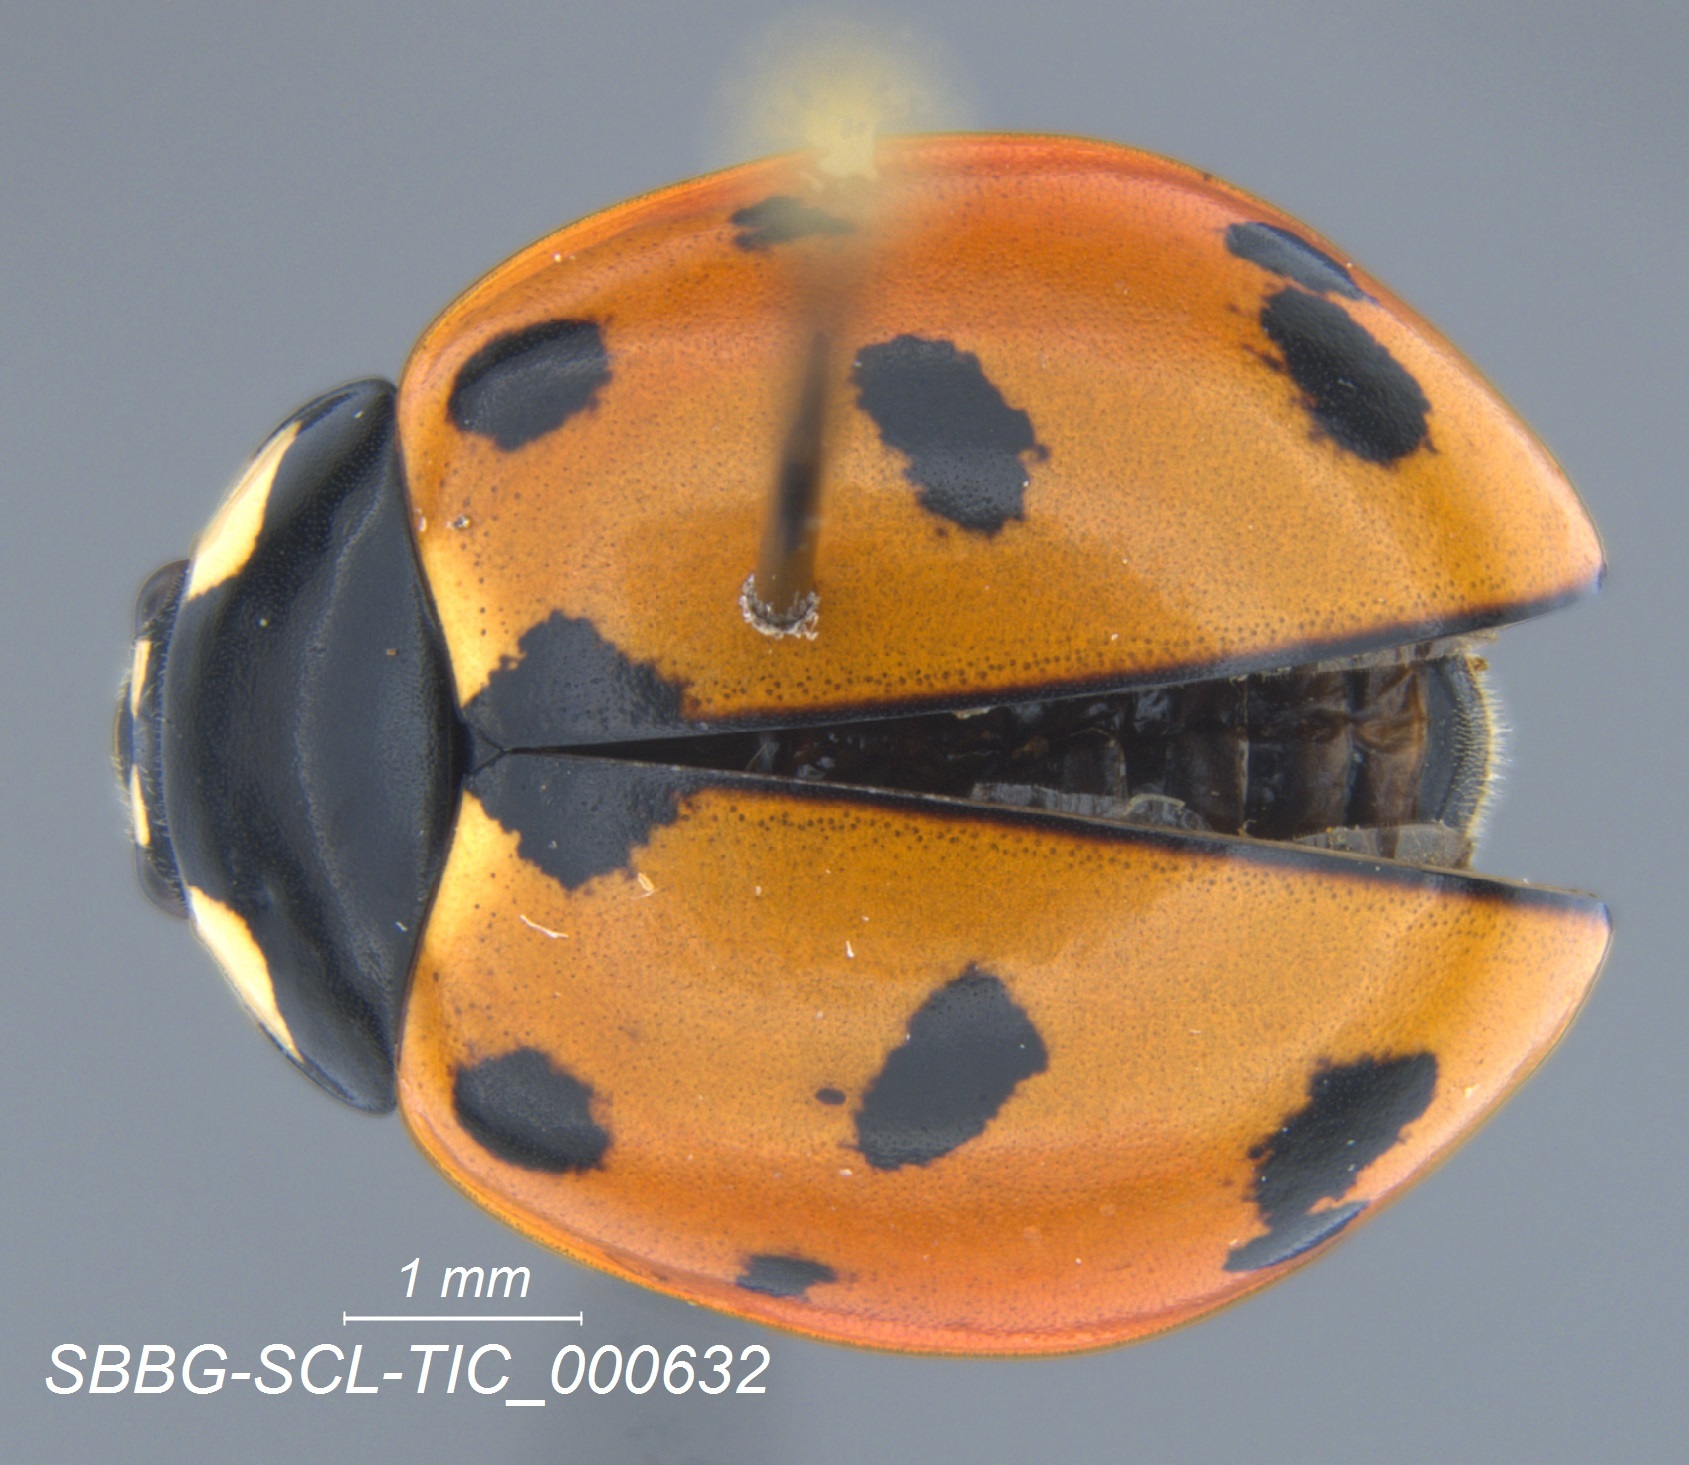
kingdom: Animalia
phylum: Arthropoda
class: Insecta
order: Coleoptera
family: Coccinellidae
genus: Coccinella
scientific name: Coccinella californica
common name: Lady beetle
